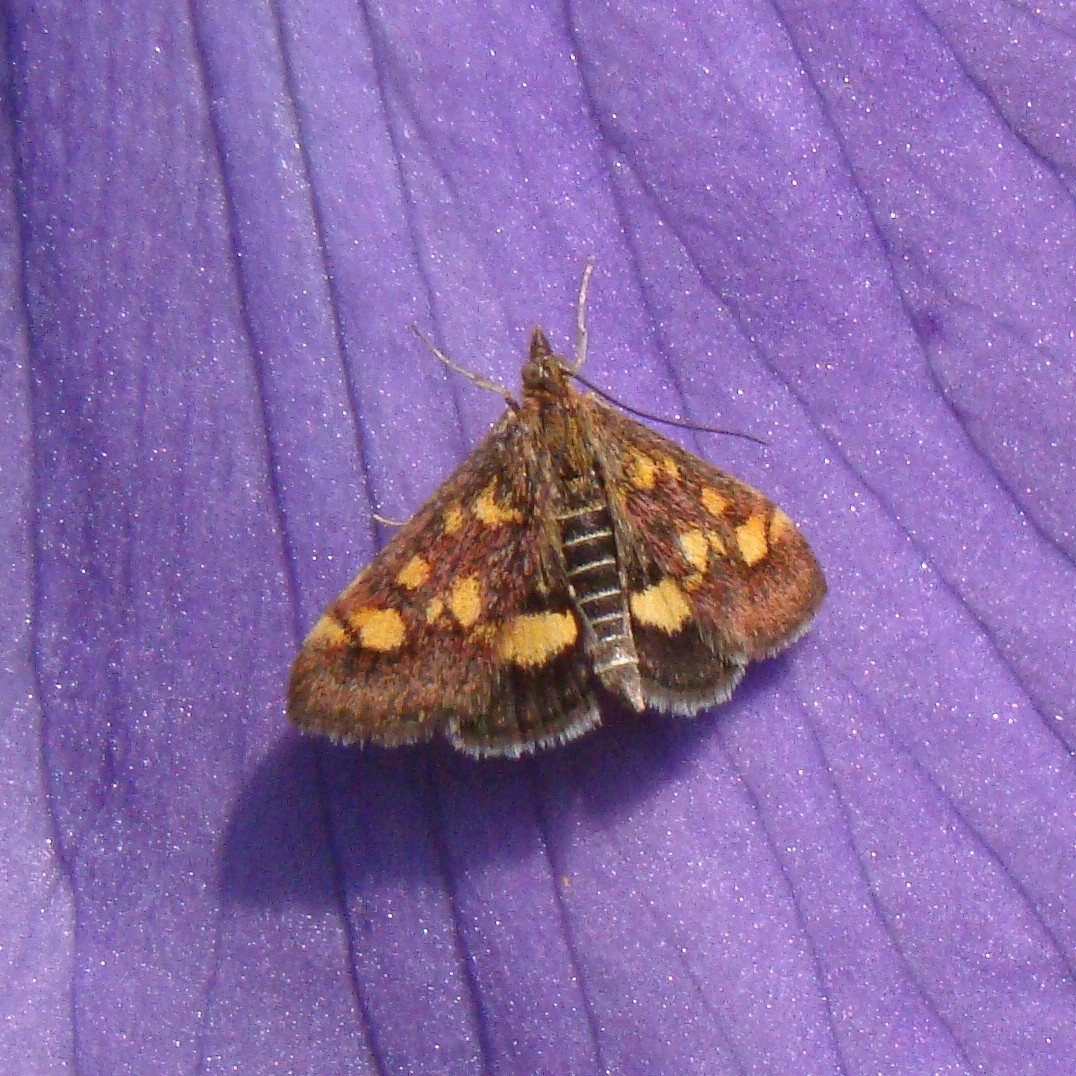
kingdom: Animalia
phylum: Arthropoda
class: Insecta
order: Lepidoptera
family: Crambidae
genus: Pyrausta
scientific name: Pyrausta aurata
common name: Small purple & gold
